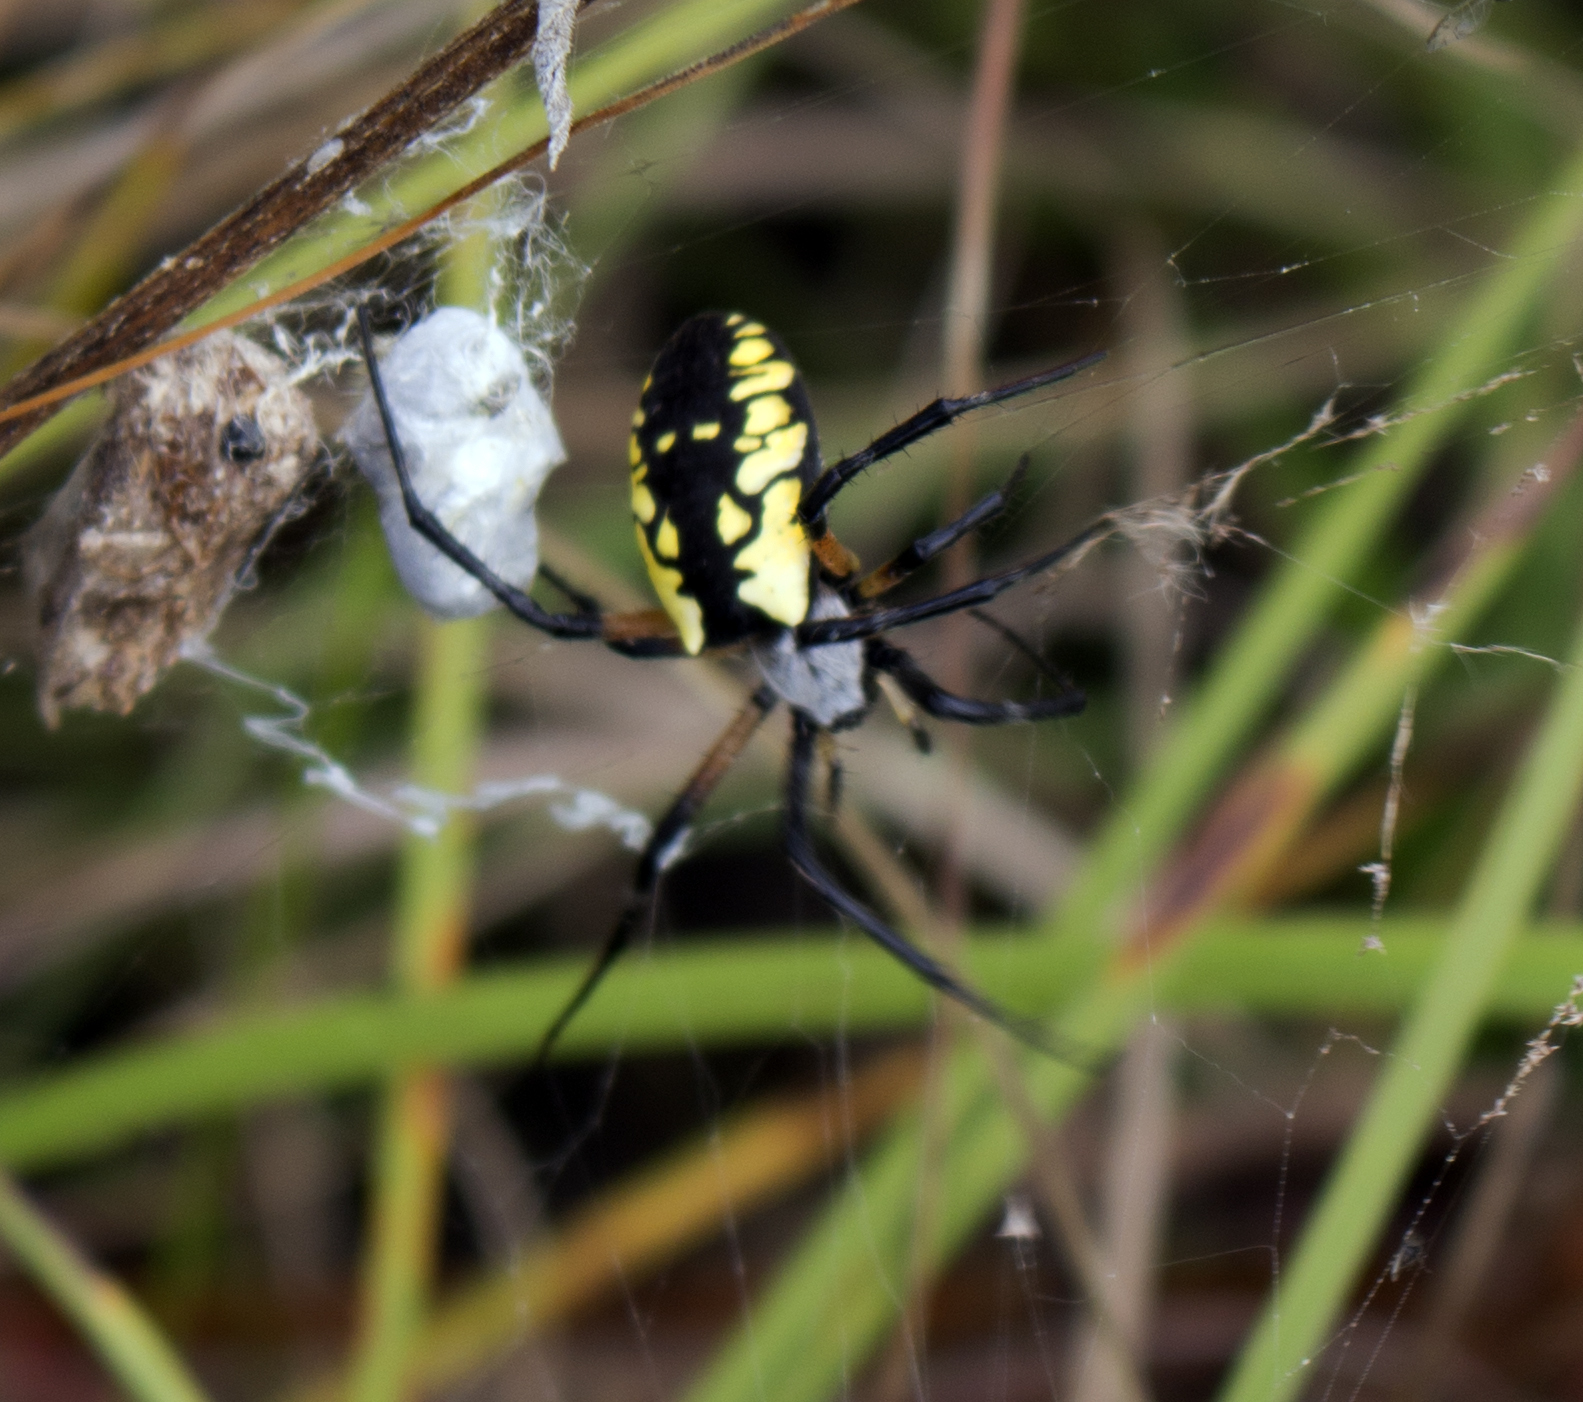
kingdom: Animalia
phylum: Arthropoda
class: Arachnida
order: Araneae
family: Araneidae
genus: Argiope
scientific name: Argiope aurantia
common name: Orb weavers
